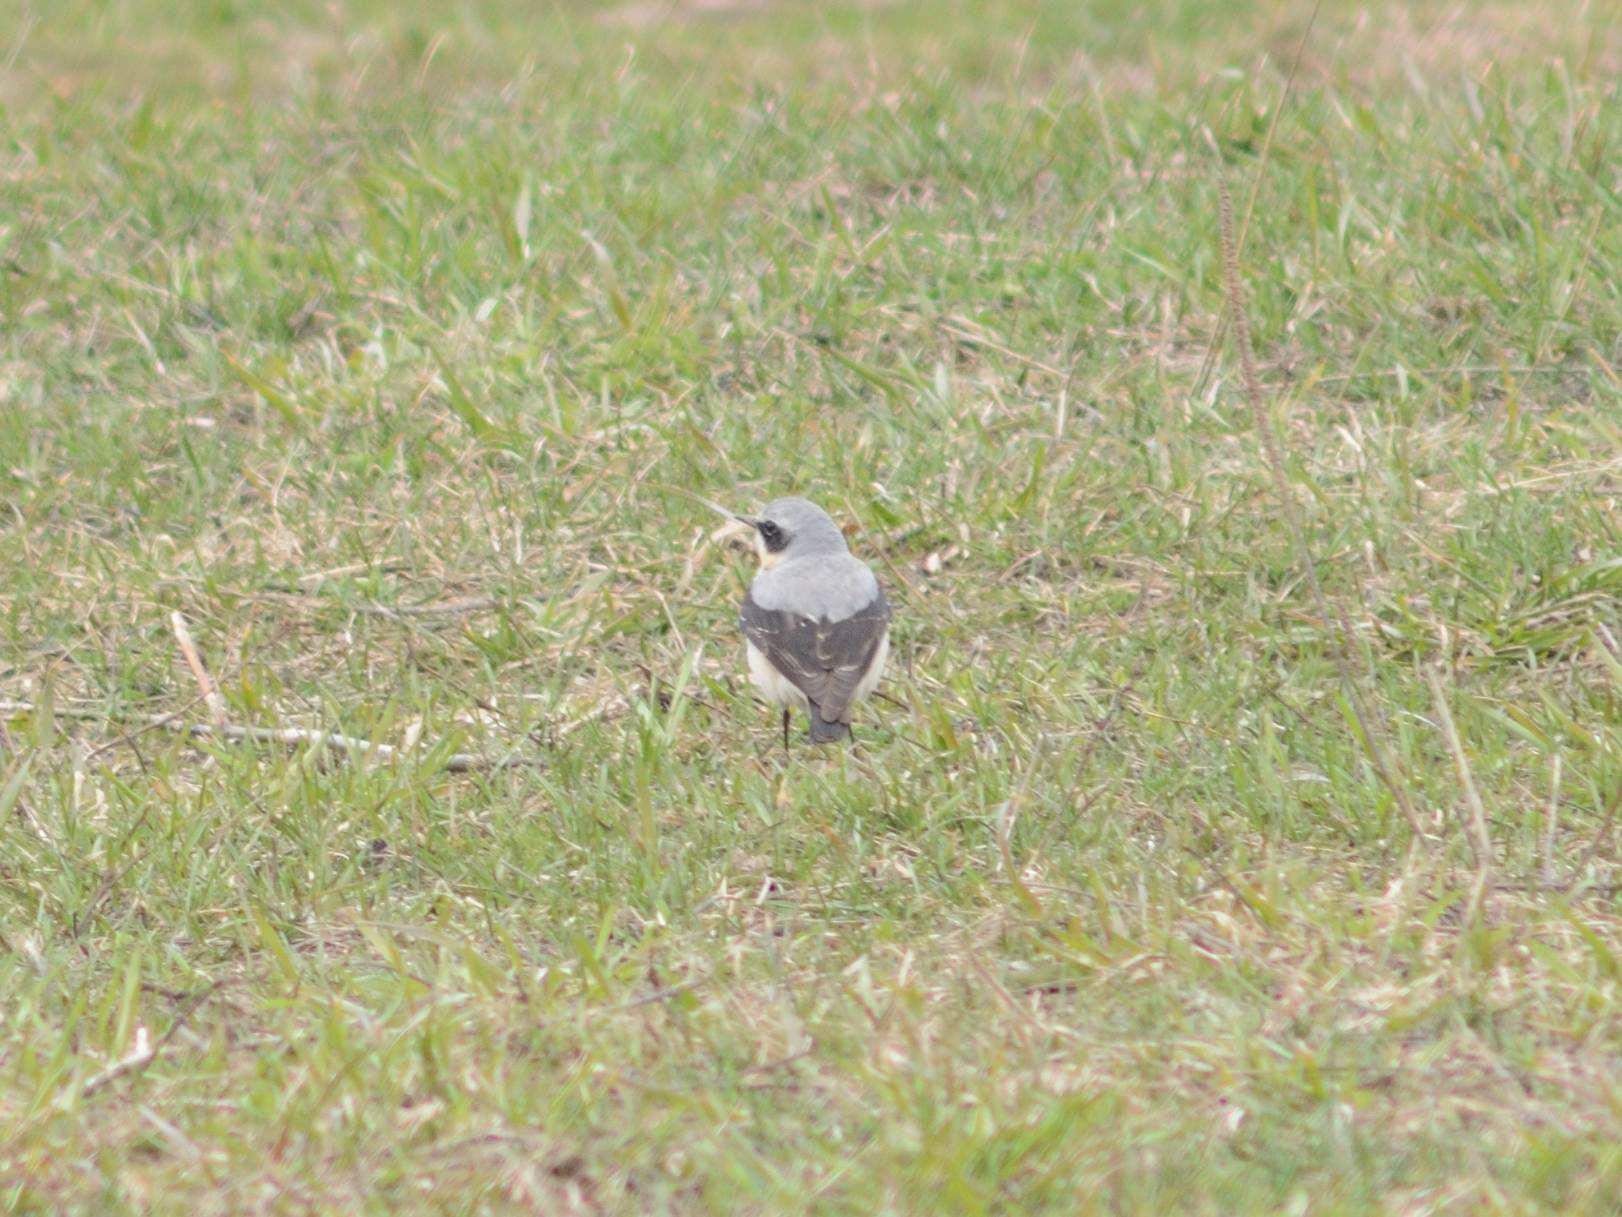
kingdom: Animalia
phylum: Chordata
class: Aves
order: Passeriformes
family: Muscicapidae
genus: Oenanthe
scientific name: Oenanthe oenanthe
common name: Northern wheatear
